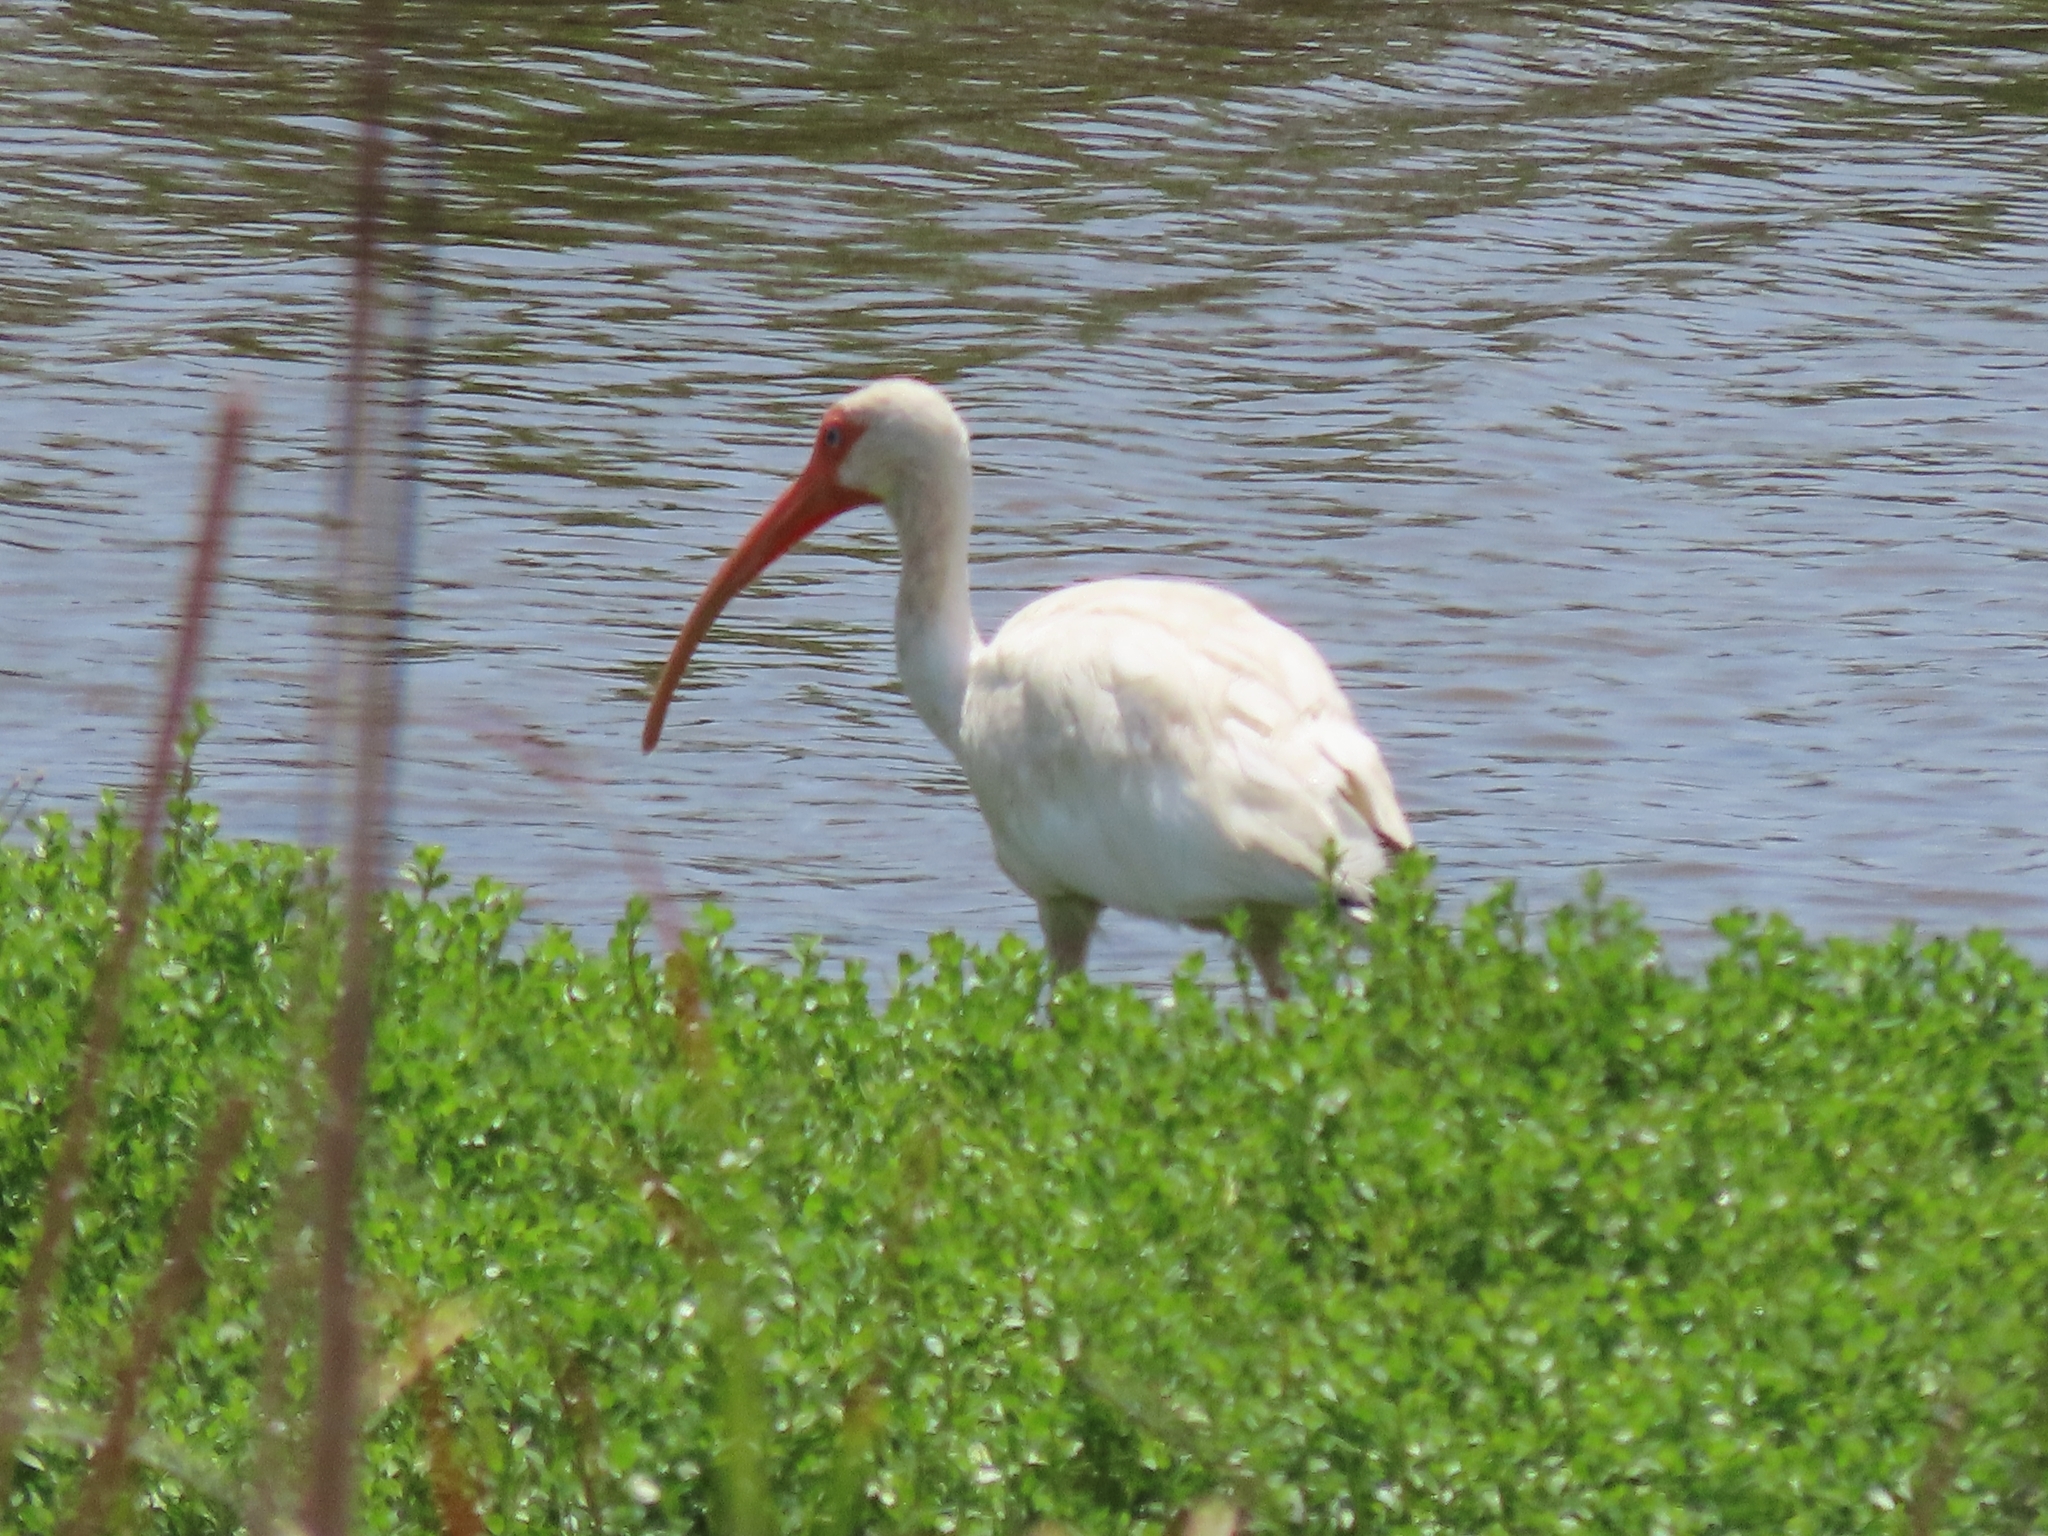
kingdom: Animalia
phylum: Chordata
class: Aves
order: Pelecaniformes
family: Threskiornithidae
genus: Eudocimus
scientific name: Eudocimus albus
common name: White ibis
